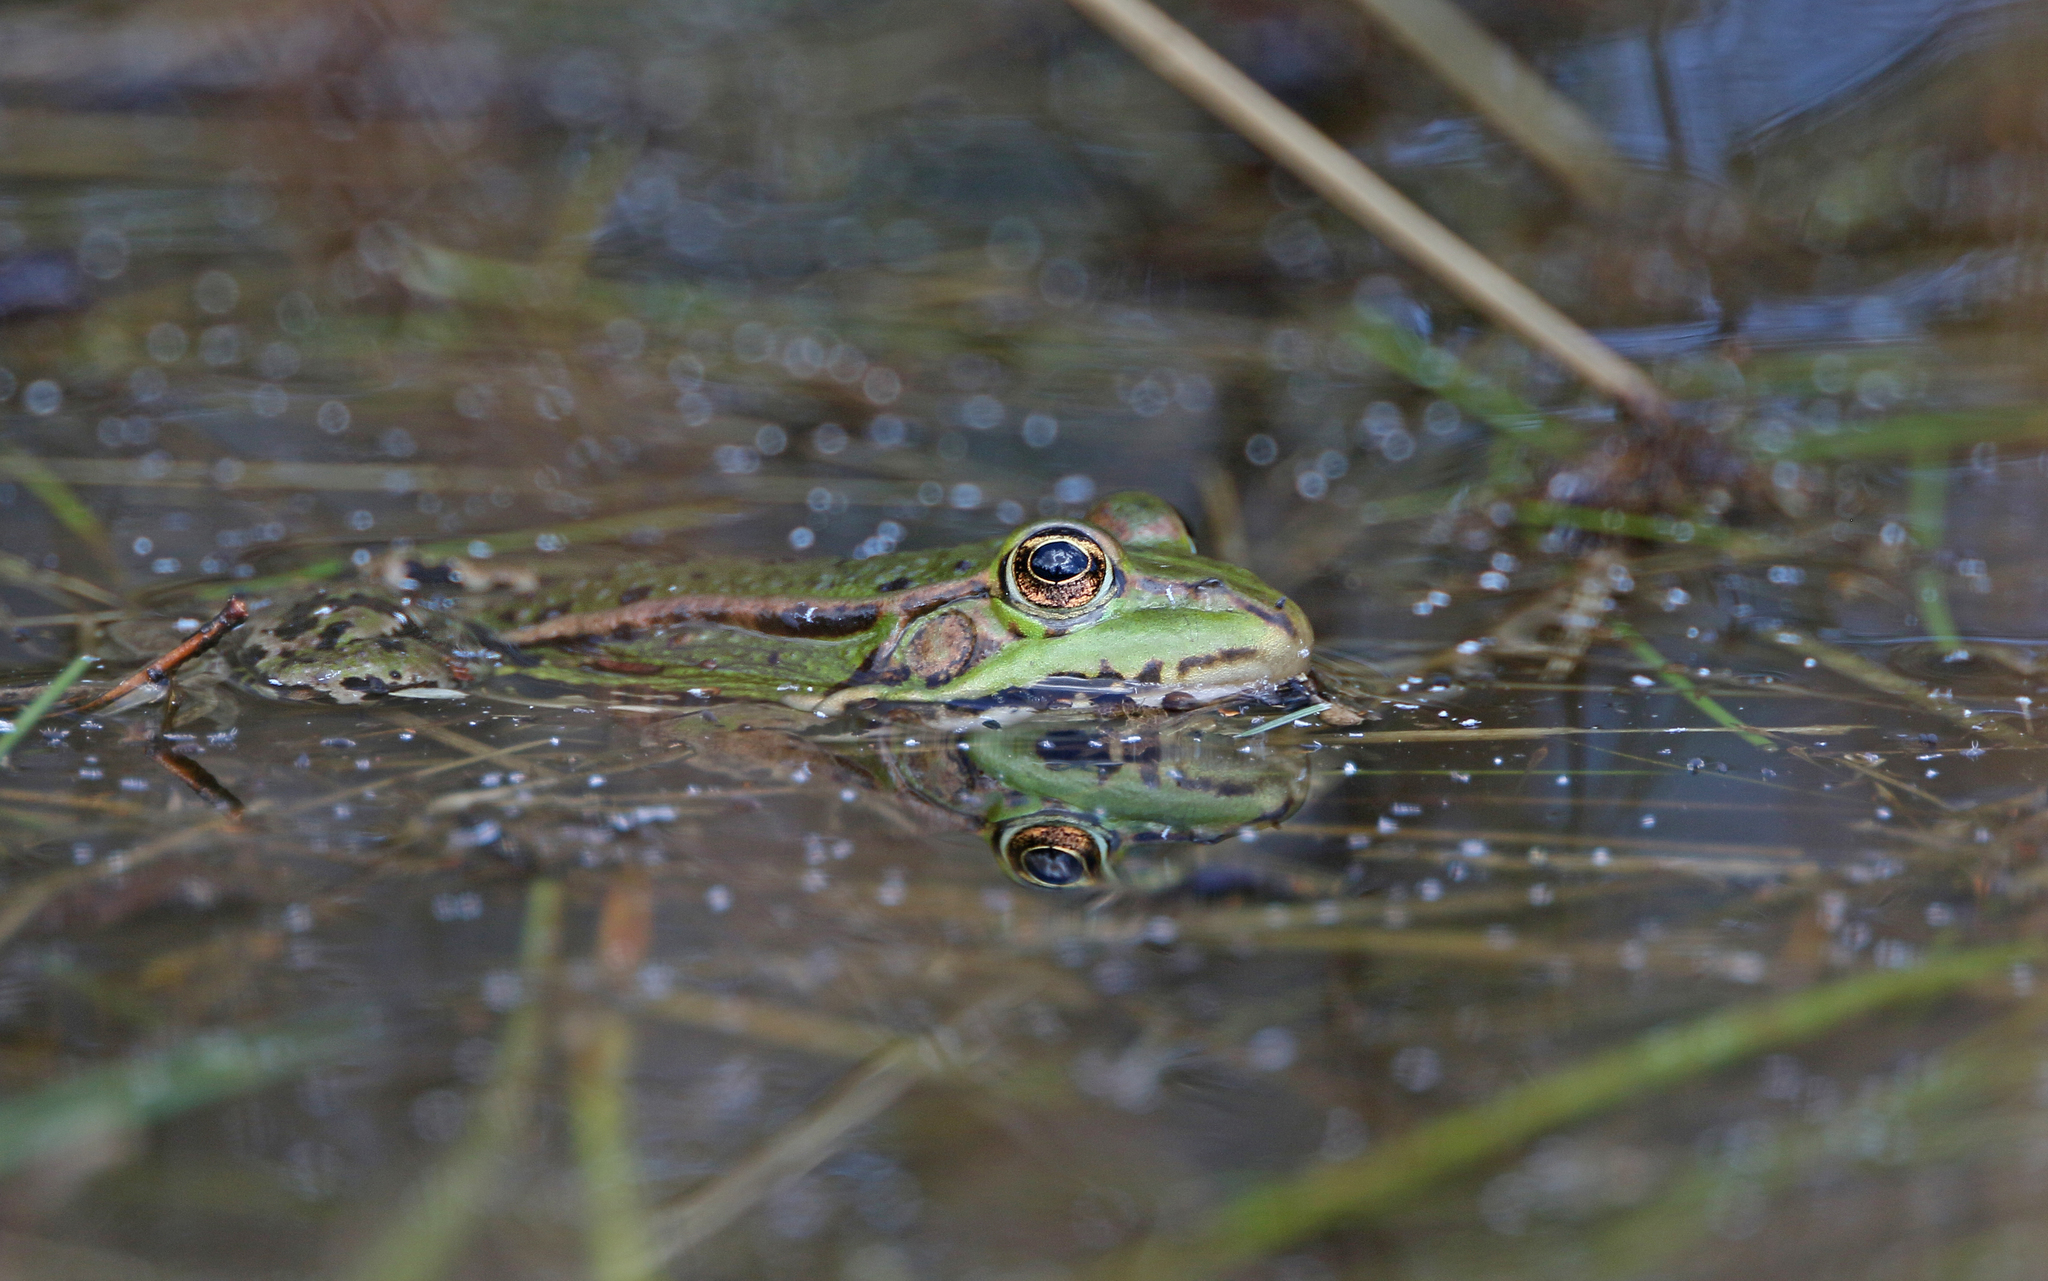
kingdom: Animalia
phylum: Chordata
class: Amphibia
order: Anura
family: Ranidae
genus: Pelophylax
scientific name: Pelophylax
